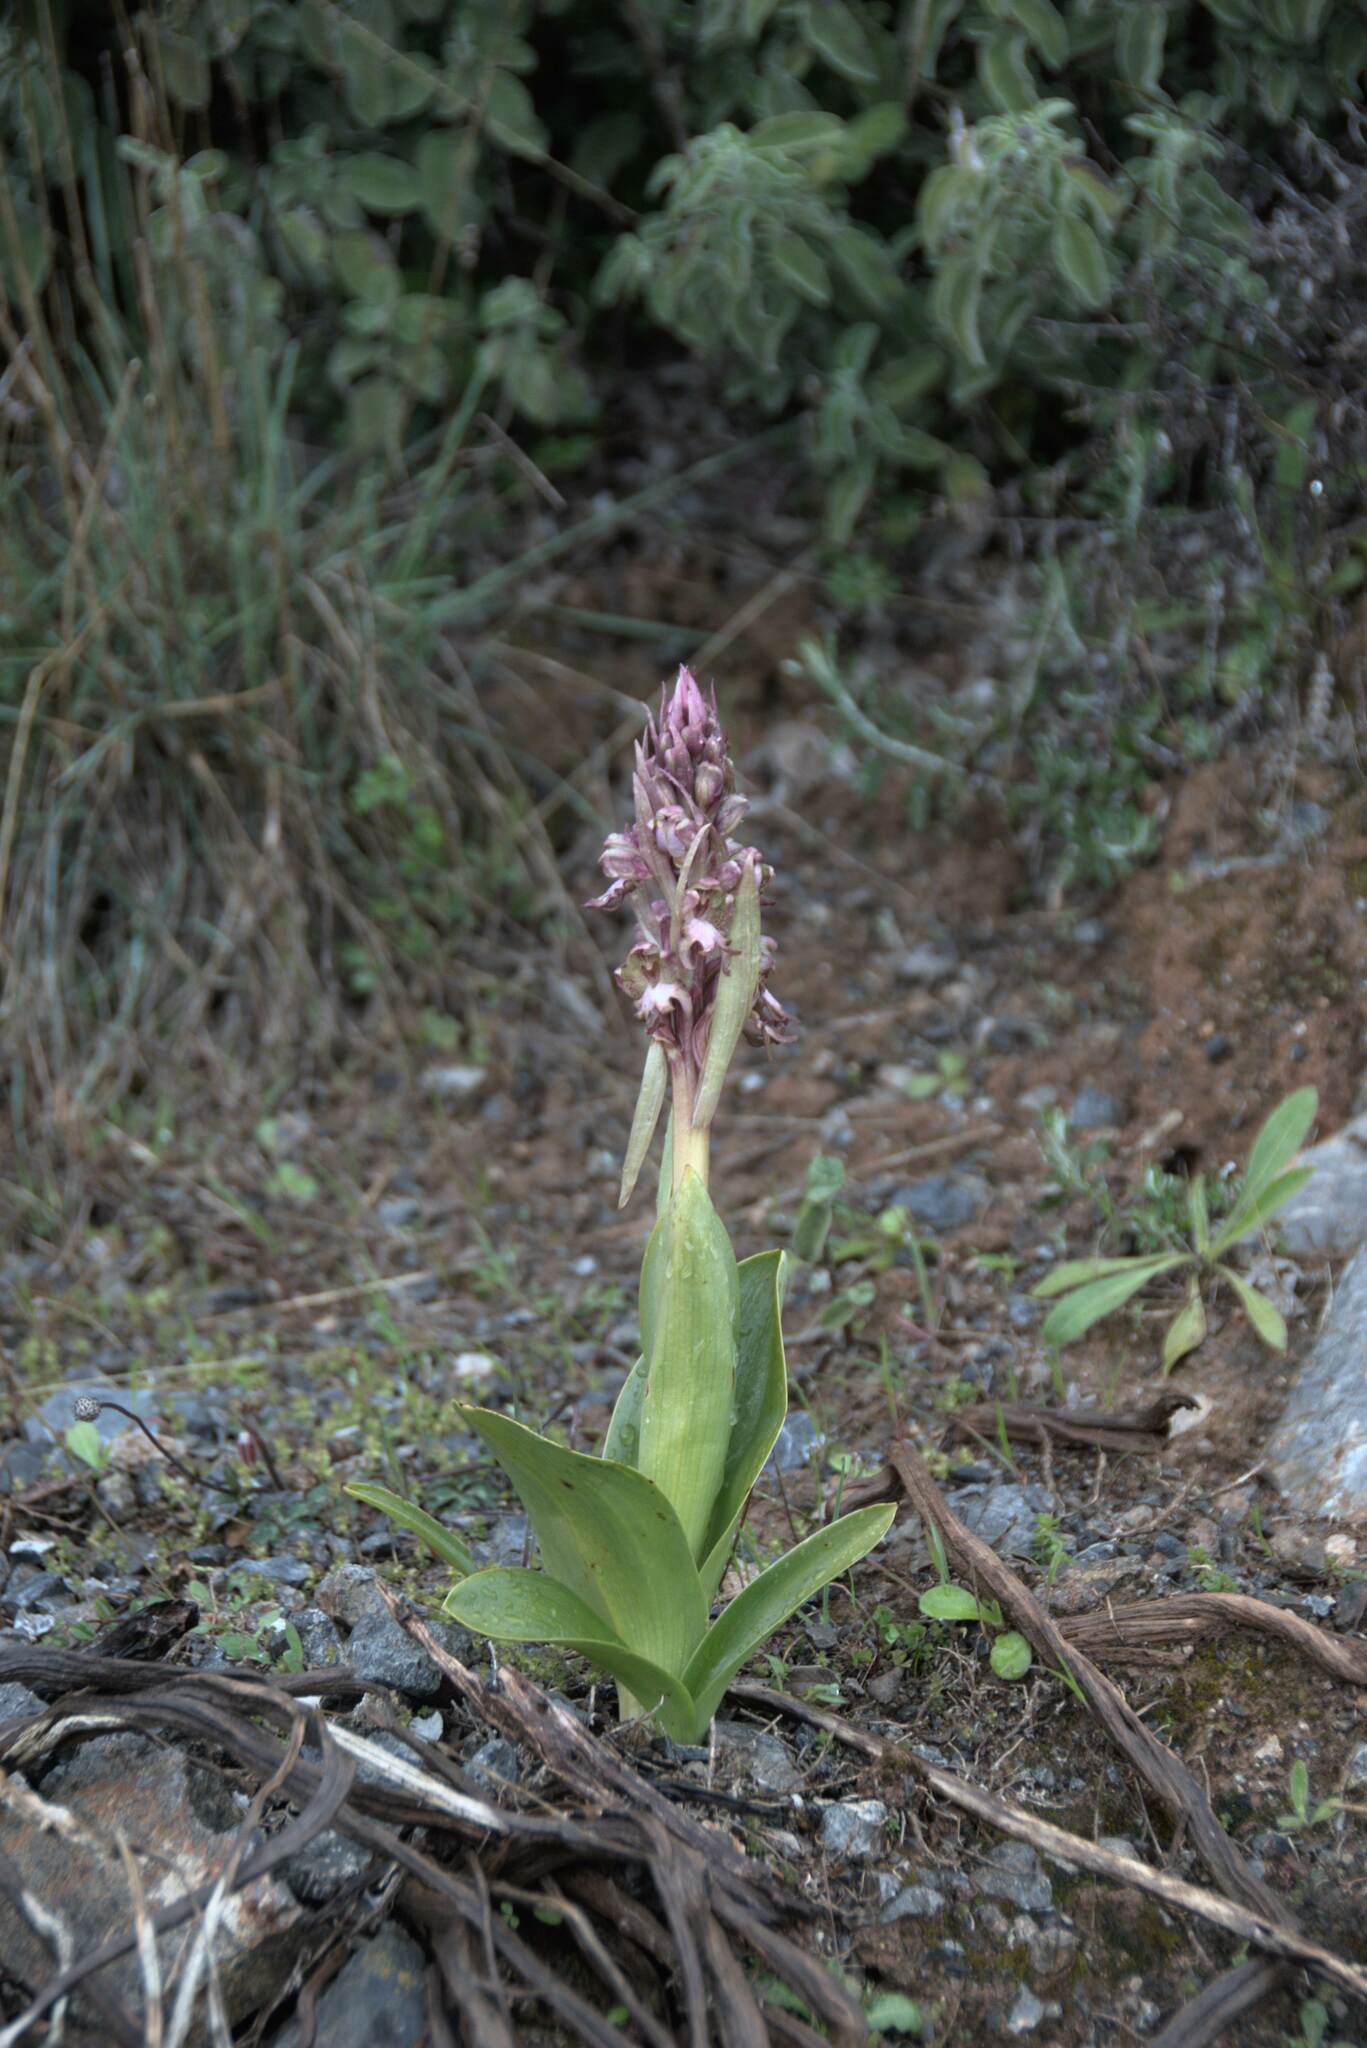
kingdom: Plantae
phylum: Tracheophyta
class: Liliopsida
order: Asparagales
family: Orchidaceae
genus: Himantoglossum
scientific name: Himantoglossum robertianum
